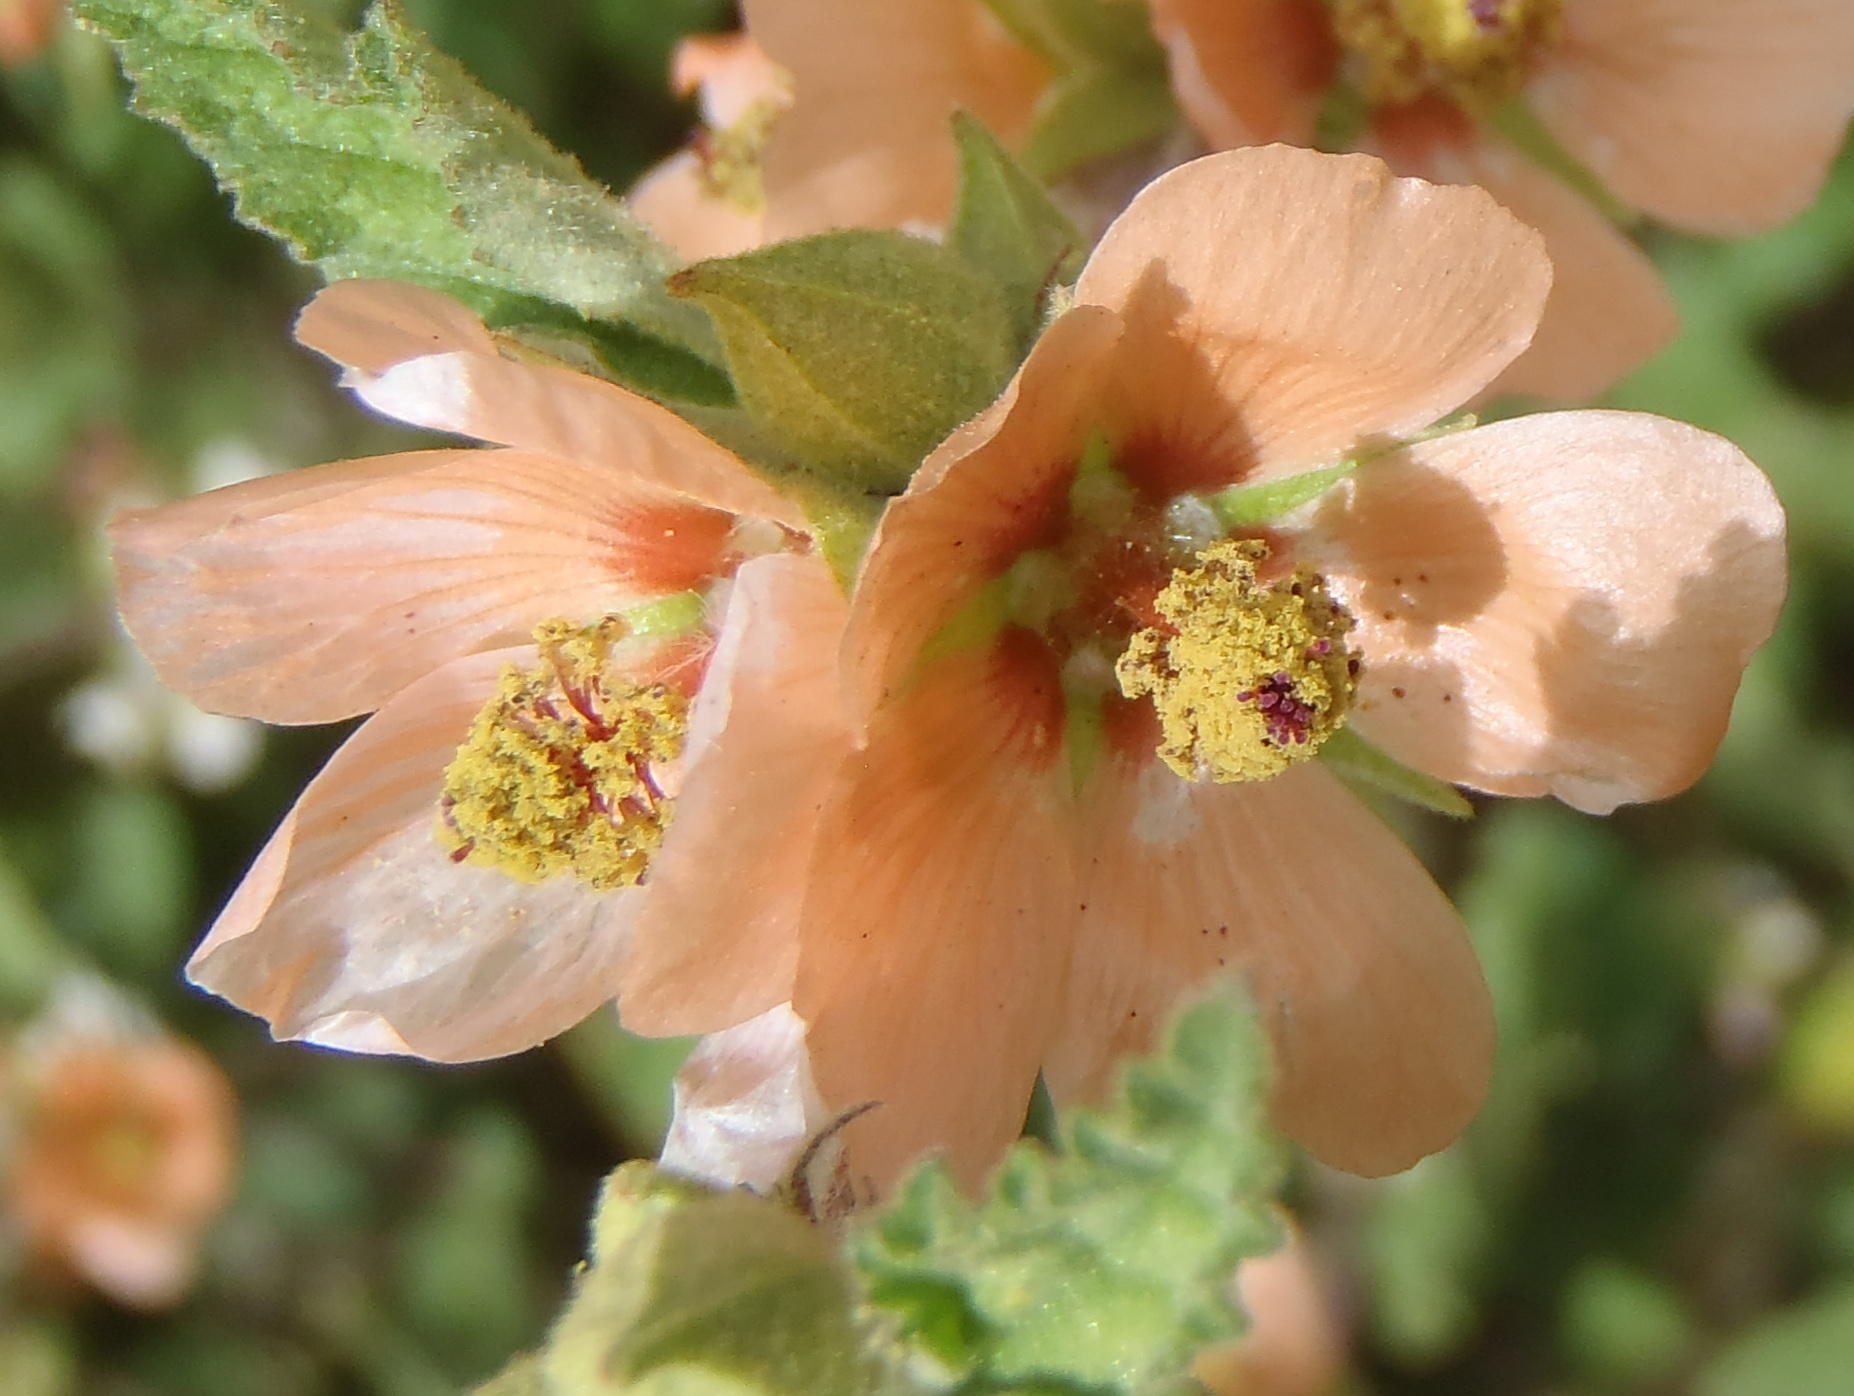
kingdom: Plantae
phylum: Tracheophyta
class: Magnoliopsida
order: Malvales
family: Malvaceae
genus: Sphaeralcea
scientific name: Sphaeralcea bonariensis
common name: Latin globemallow
